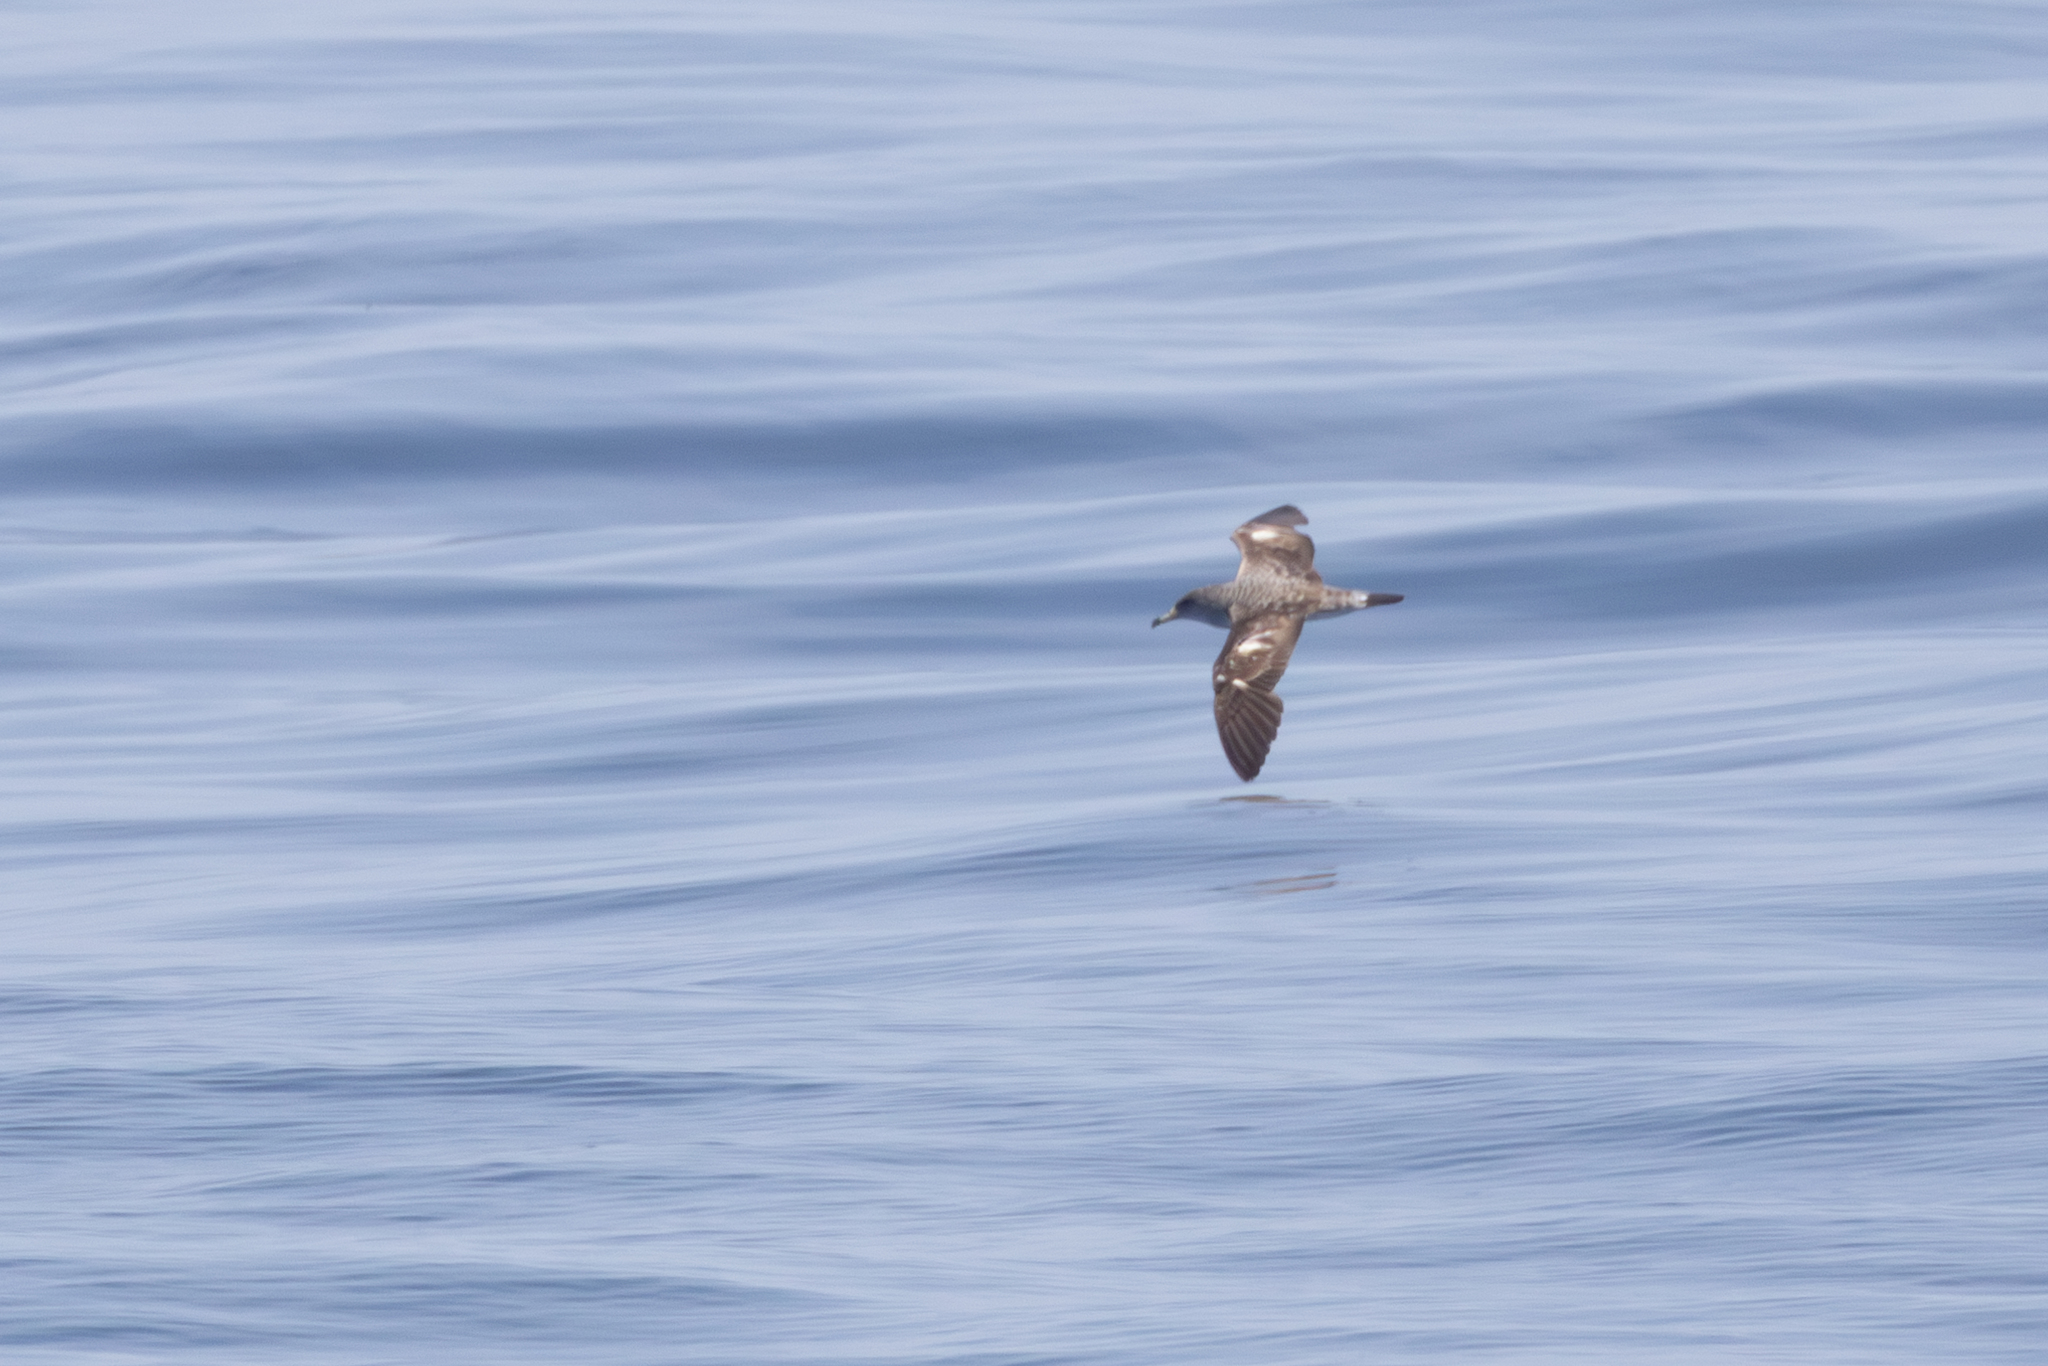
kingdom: Animalia
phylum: Chordata
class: Aves
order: Procellariiformes
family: Procellariidae
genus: Calonectris
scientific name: Calonectris diomedea
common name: Cory's shearwater
